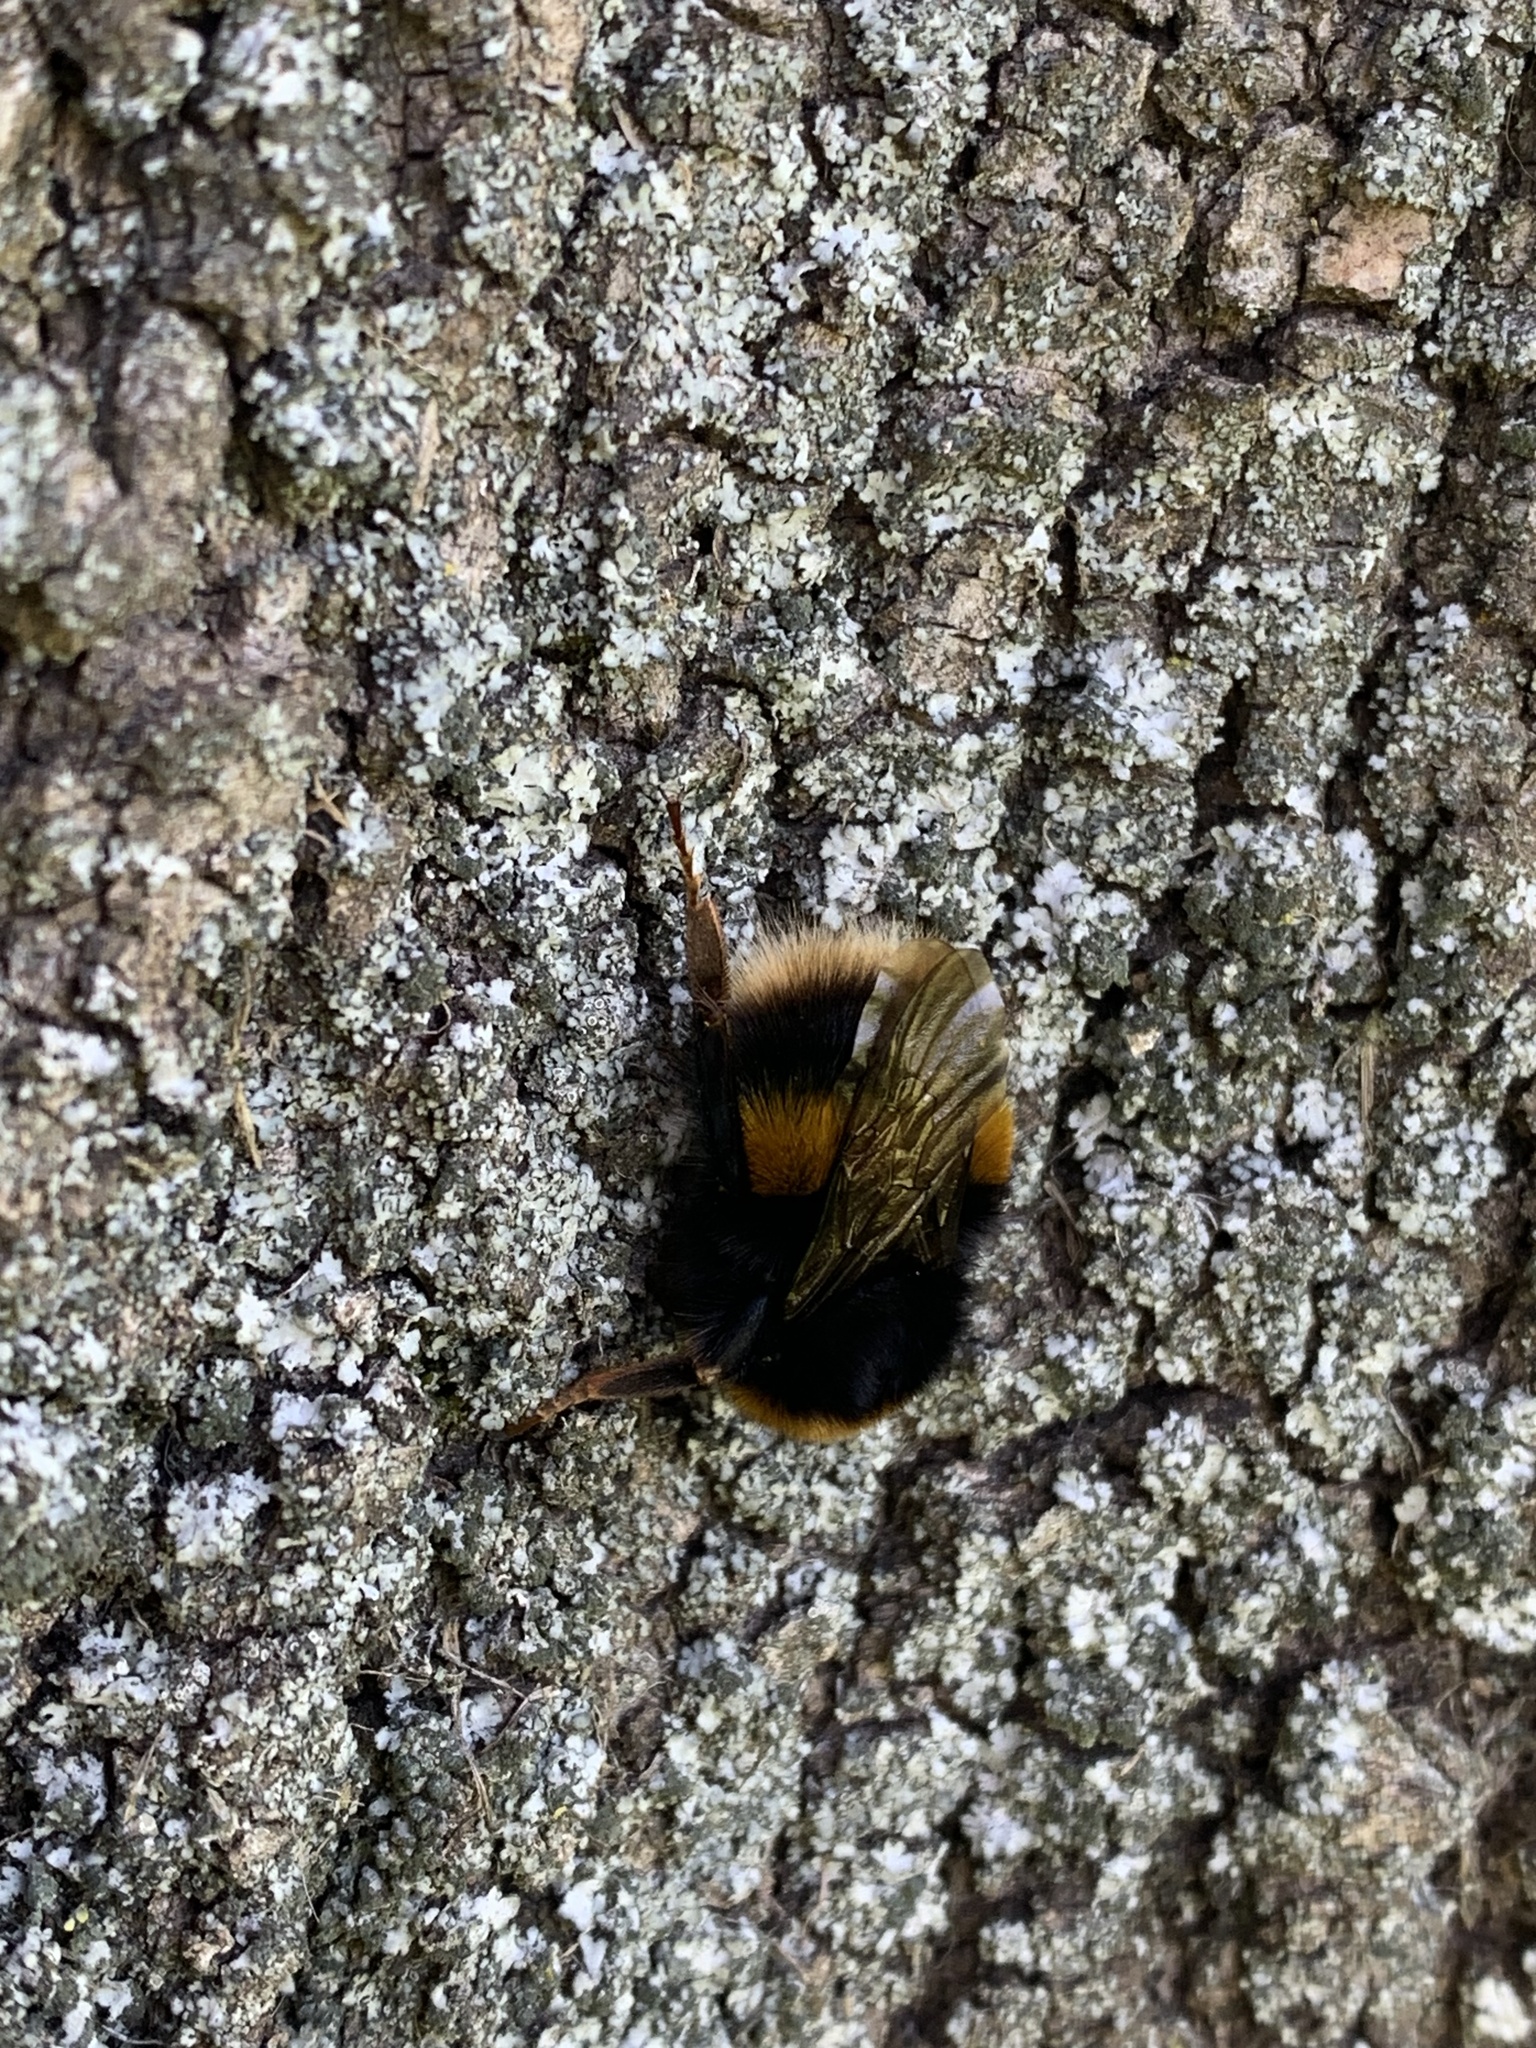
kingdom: Animalia
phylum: Arthropoda
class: Insecta
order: Hymenoptera
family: Apidae
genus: Bombus
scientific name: Bombus terrestris
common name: Buff-tailed bumblebee
